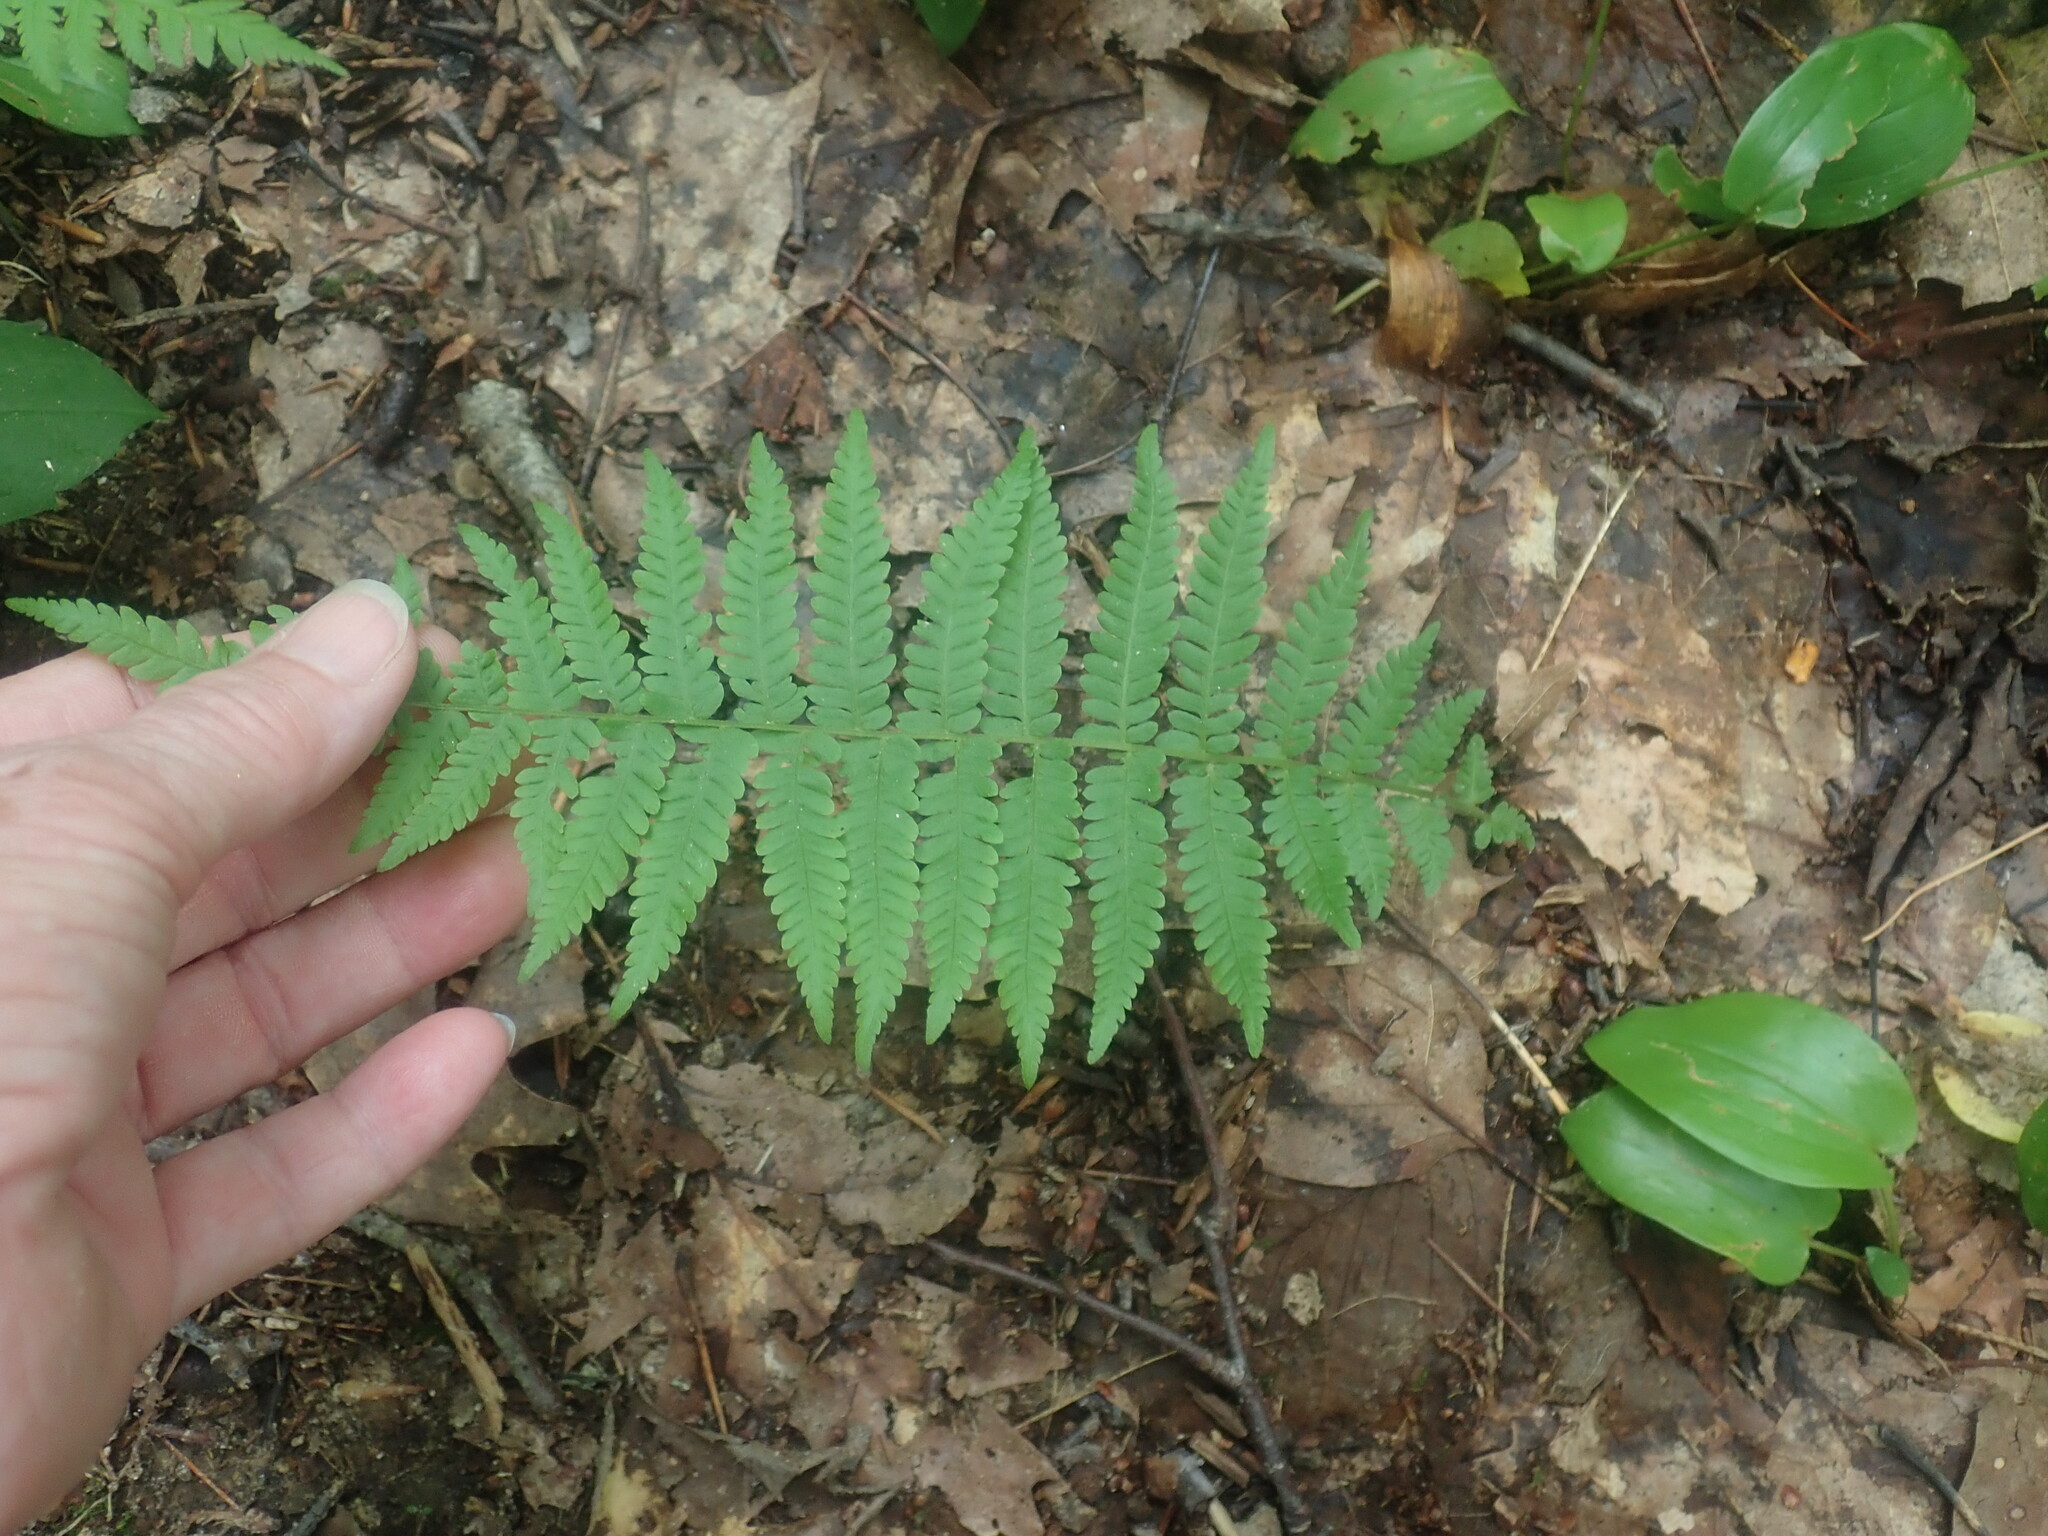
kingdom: Plantae
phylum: Tracheophyta
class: Polypodiopsida
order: Polypodiales
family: Thelypteridaceae
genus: Amauropelta
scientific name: Amauropelta noveboracensis
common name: New york fern
